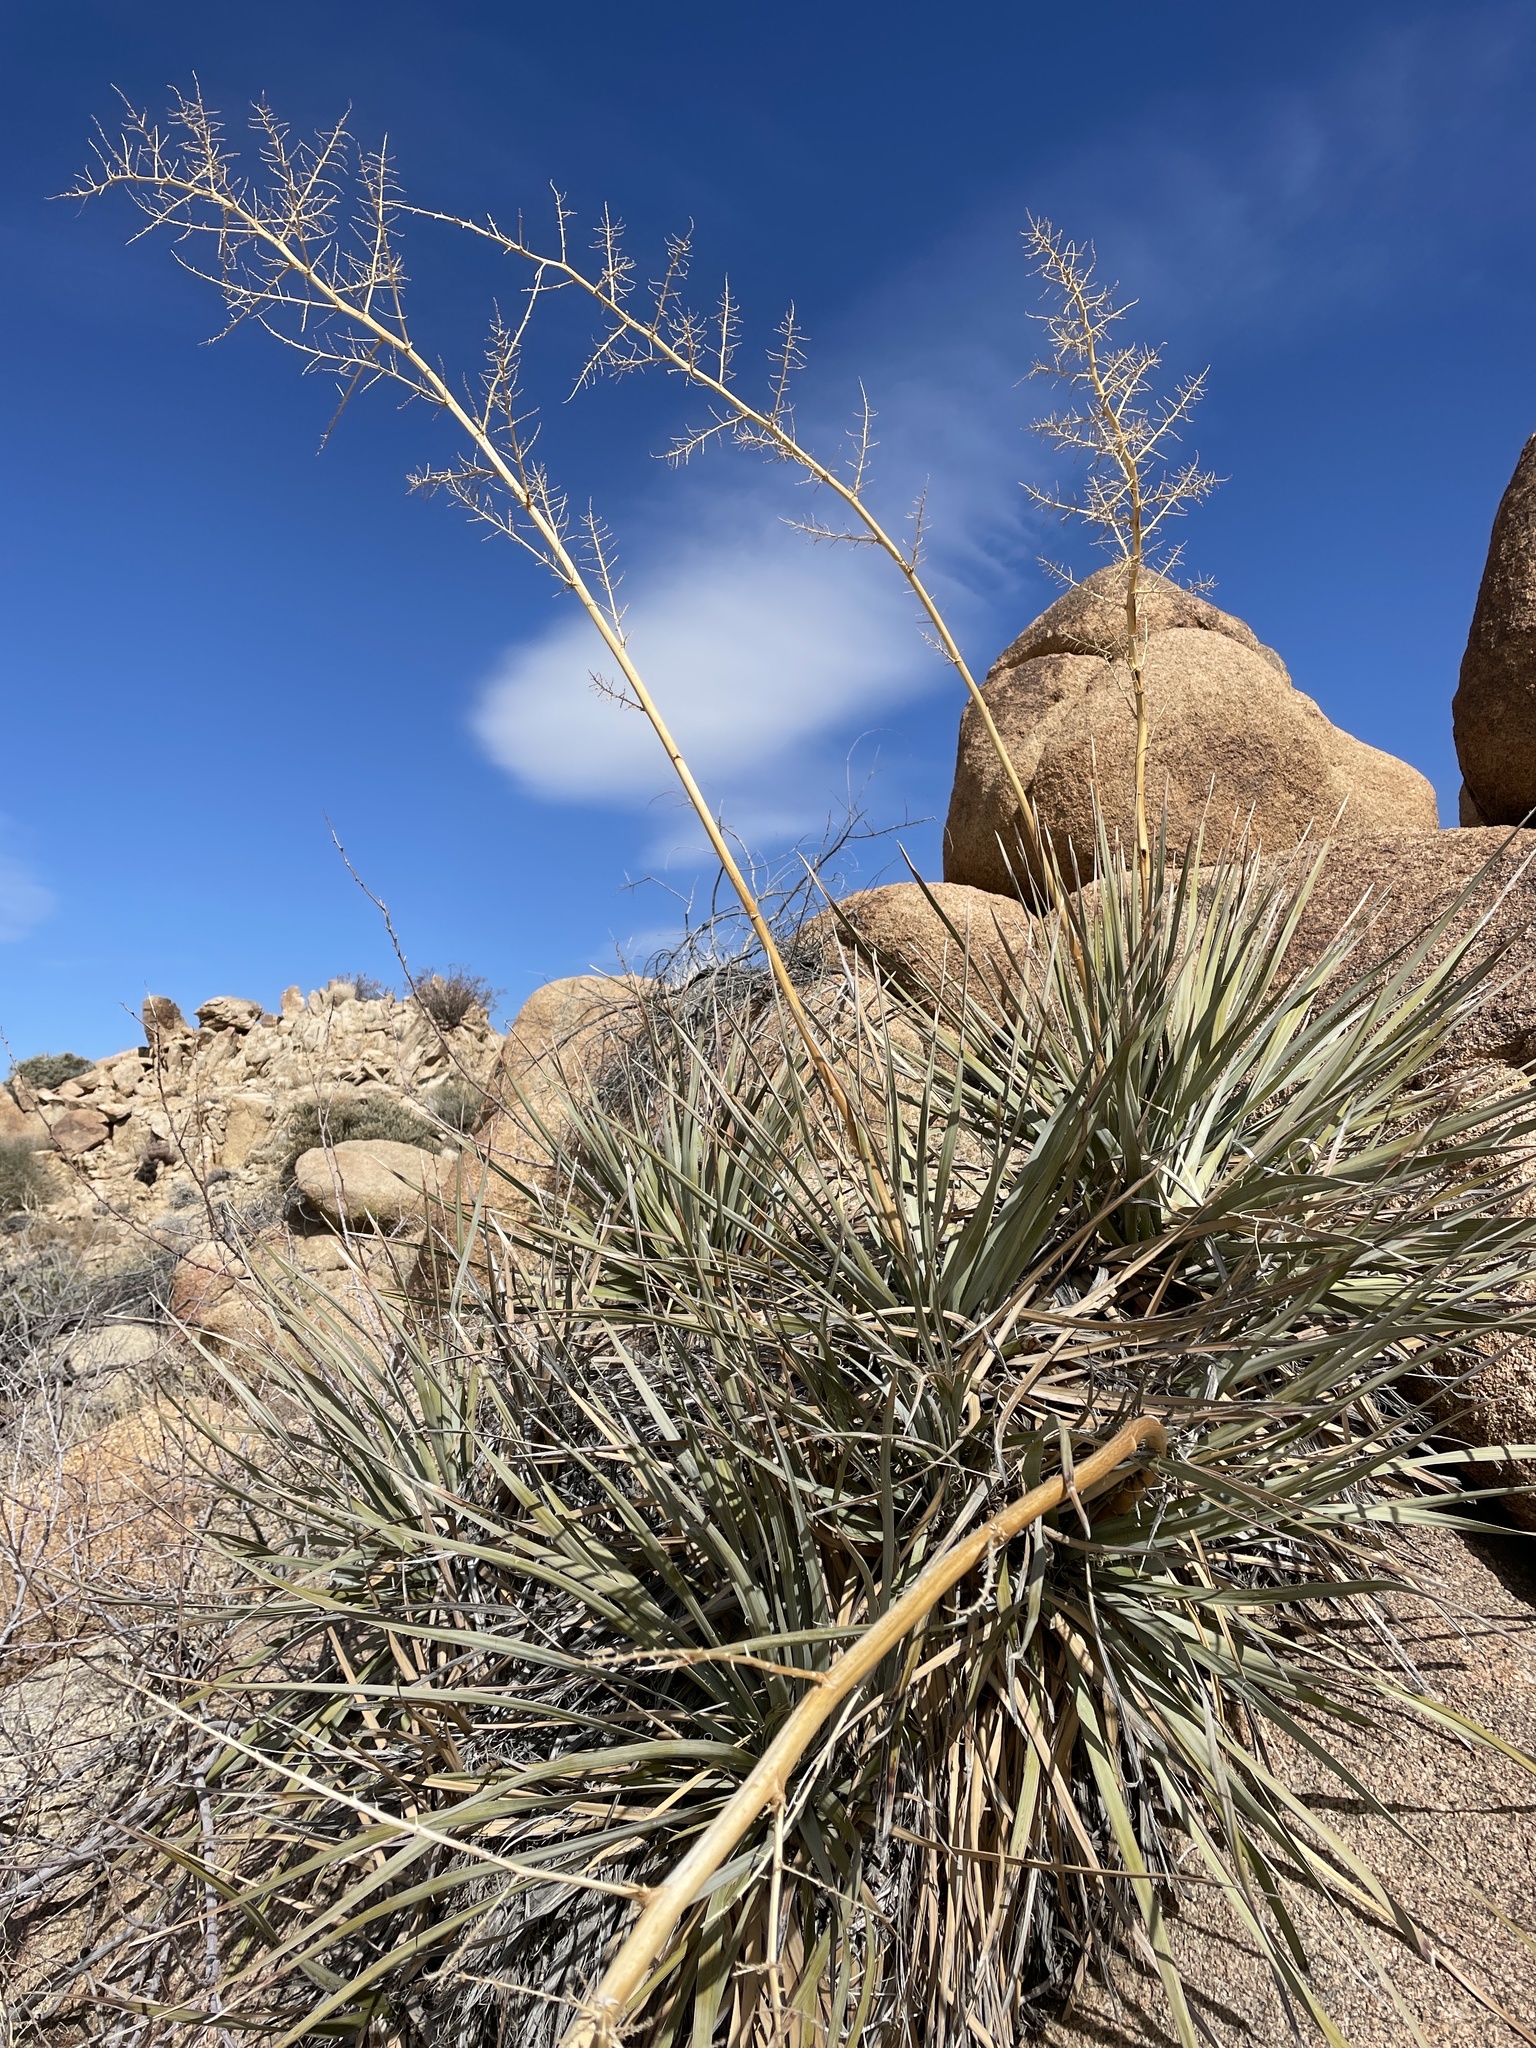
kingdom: Plantae
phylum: Tracheophyta
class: Liliopsida
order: Asparagales
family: Asparagaceae
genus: Nolina
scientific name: Nolina bigelovii
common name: Bigelow bear-grass
